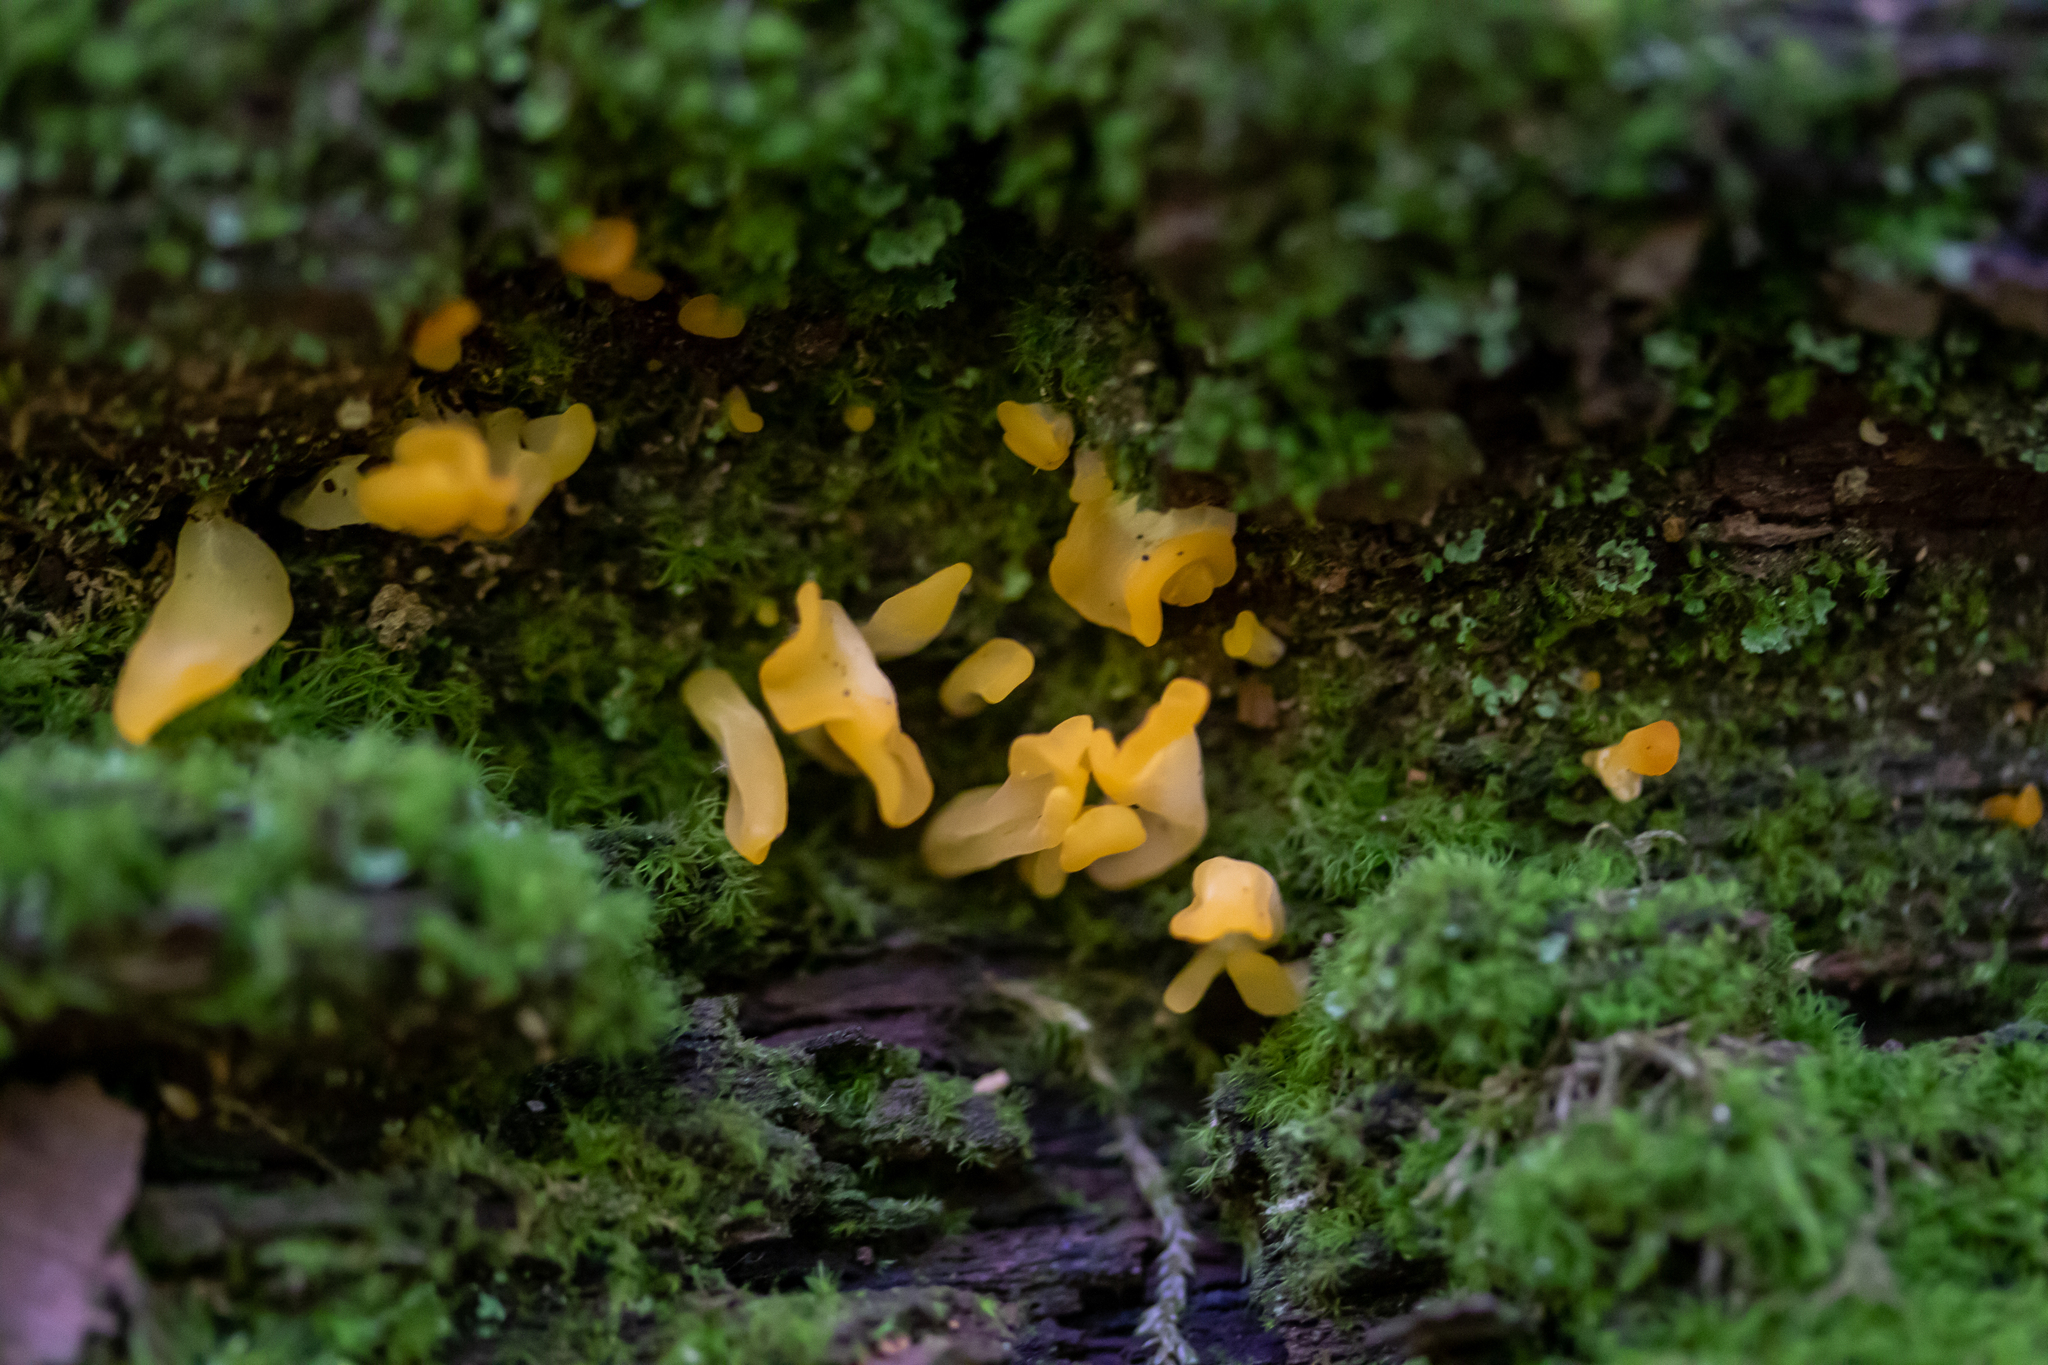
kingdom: Fungi
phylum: Basidiomycota
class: Dacrymycetes
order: Dacrymycetales
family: Dacrymycetaceae
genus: Dacrymyces
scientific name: Dacrymyces spathularius
